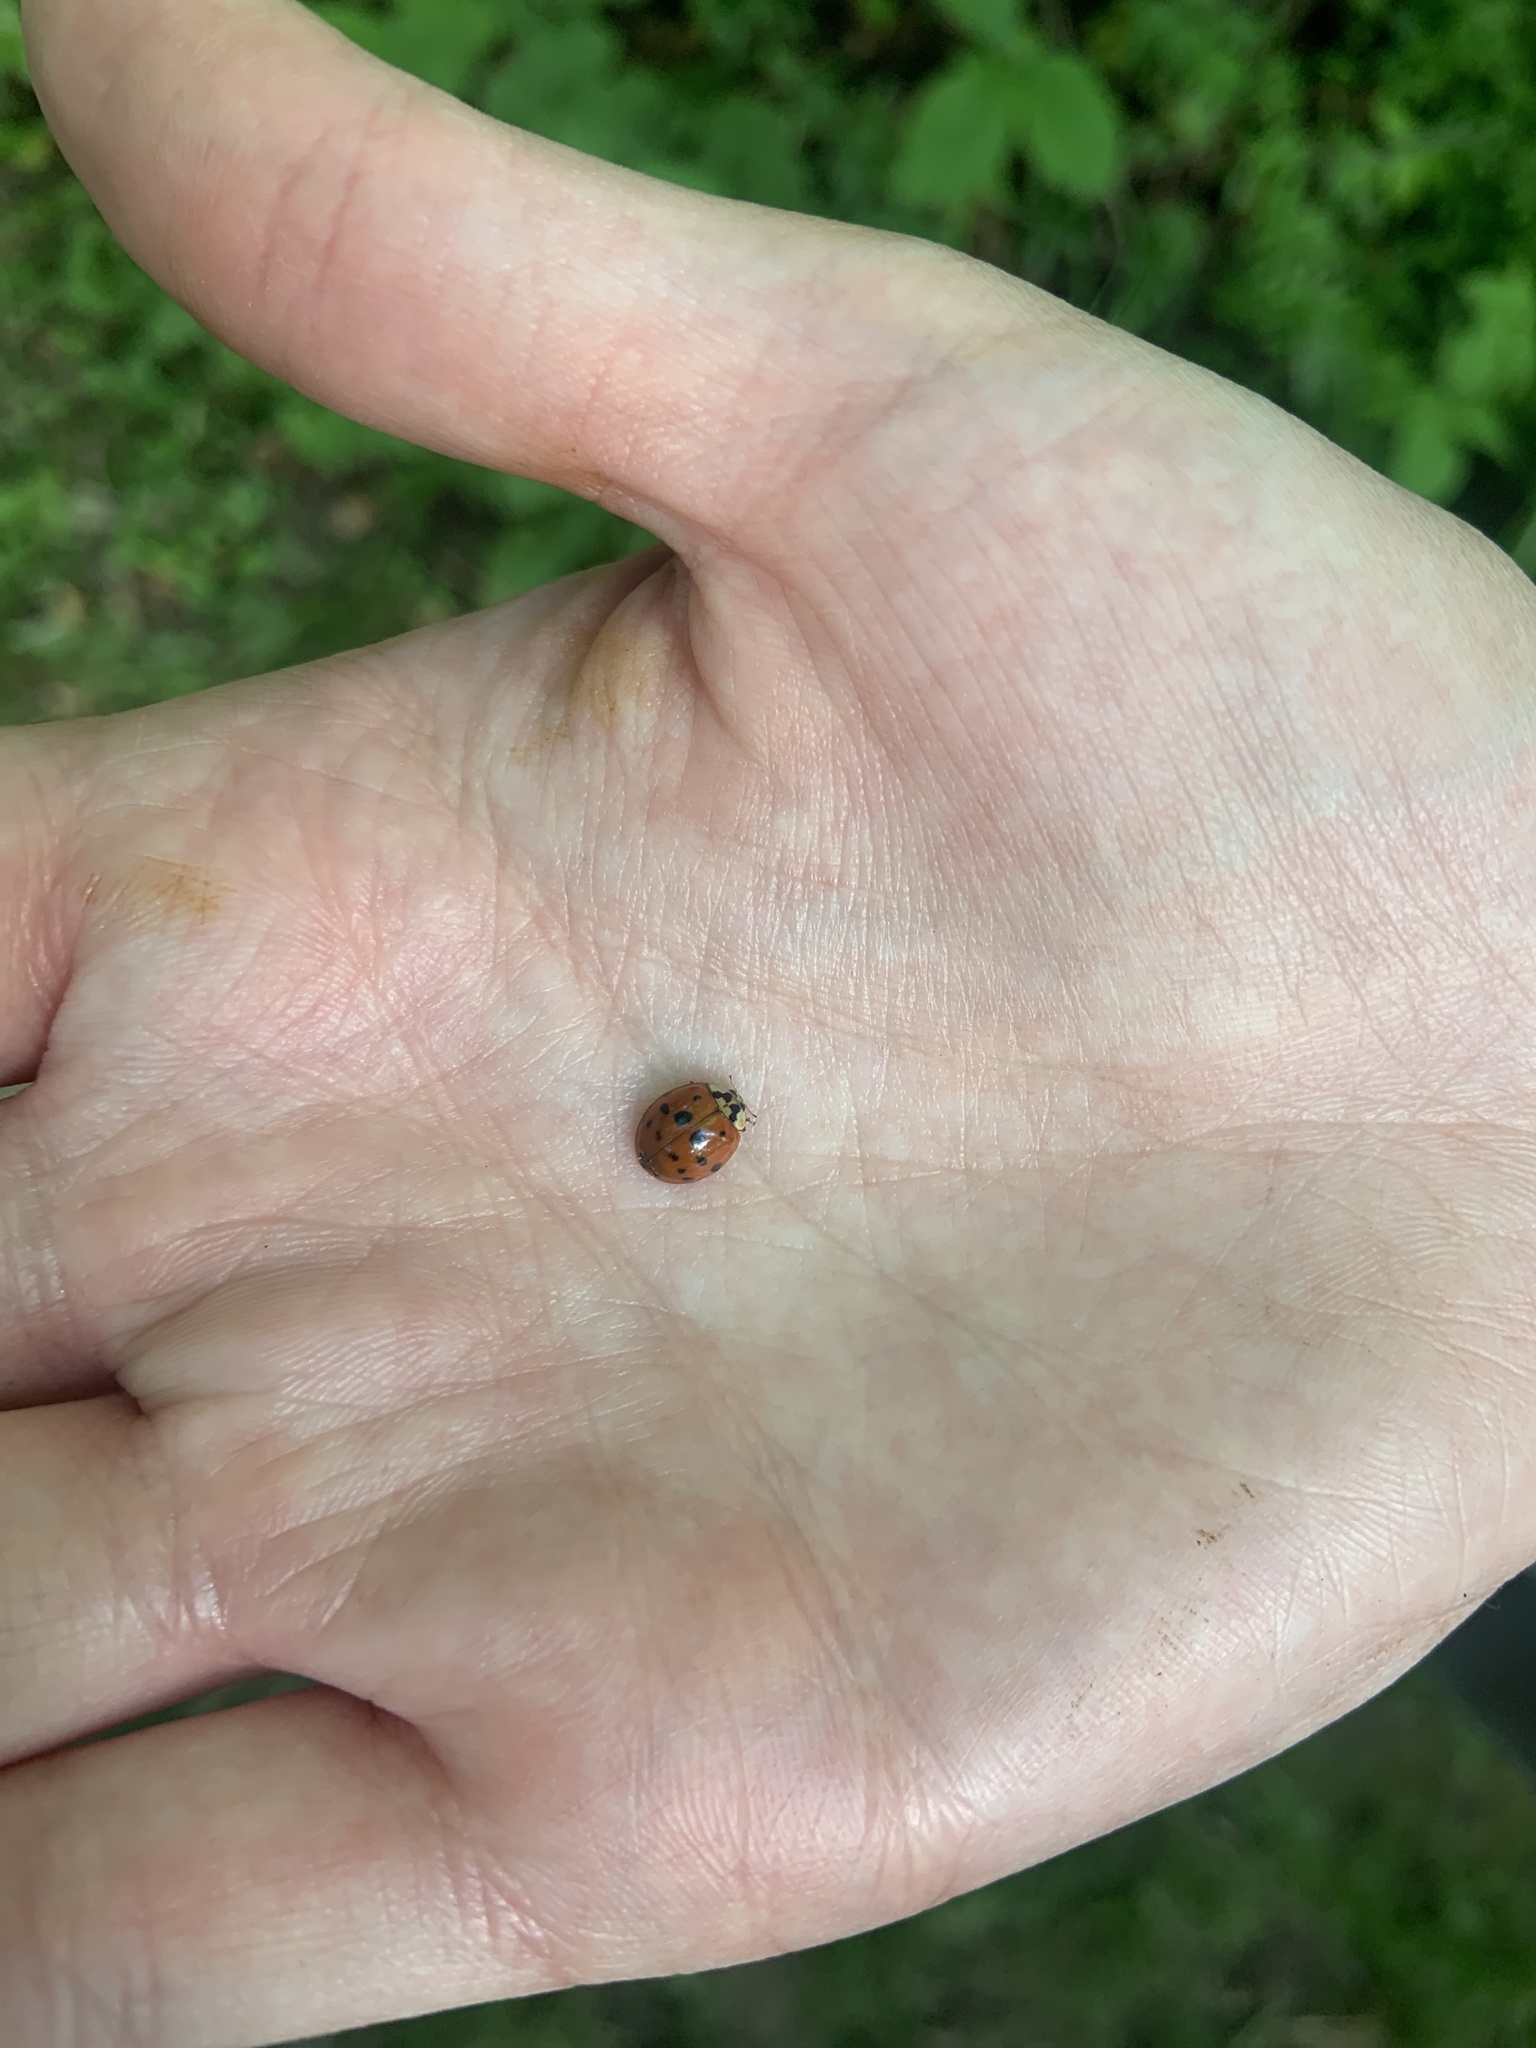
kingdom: Animalia
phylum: Arthropoda
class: Insecta
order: Coleoptera
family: Coccinellidae
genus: Harmonia
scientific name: Harmonia axyridis
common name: Harlequin ladybird
